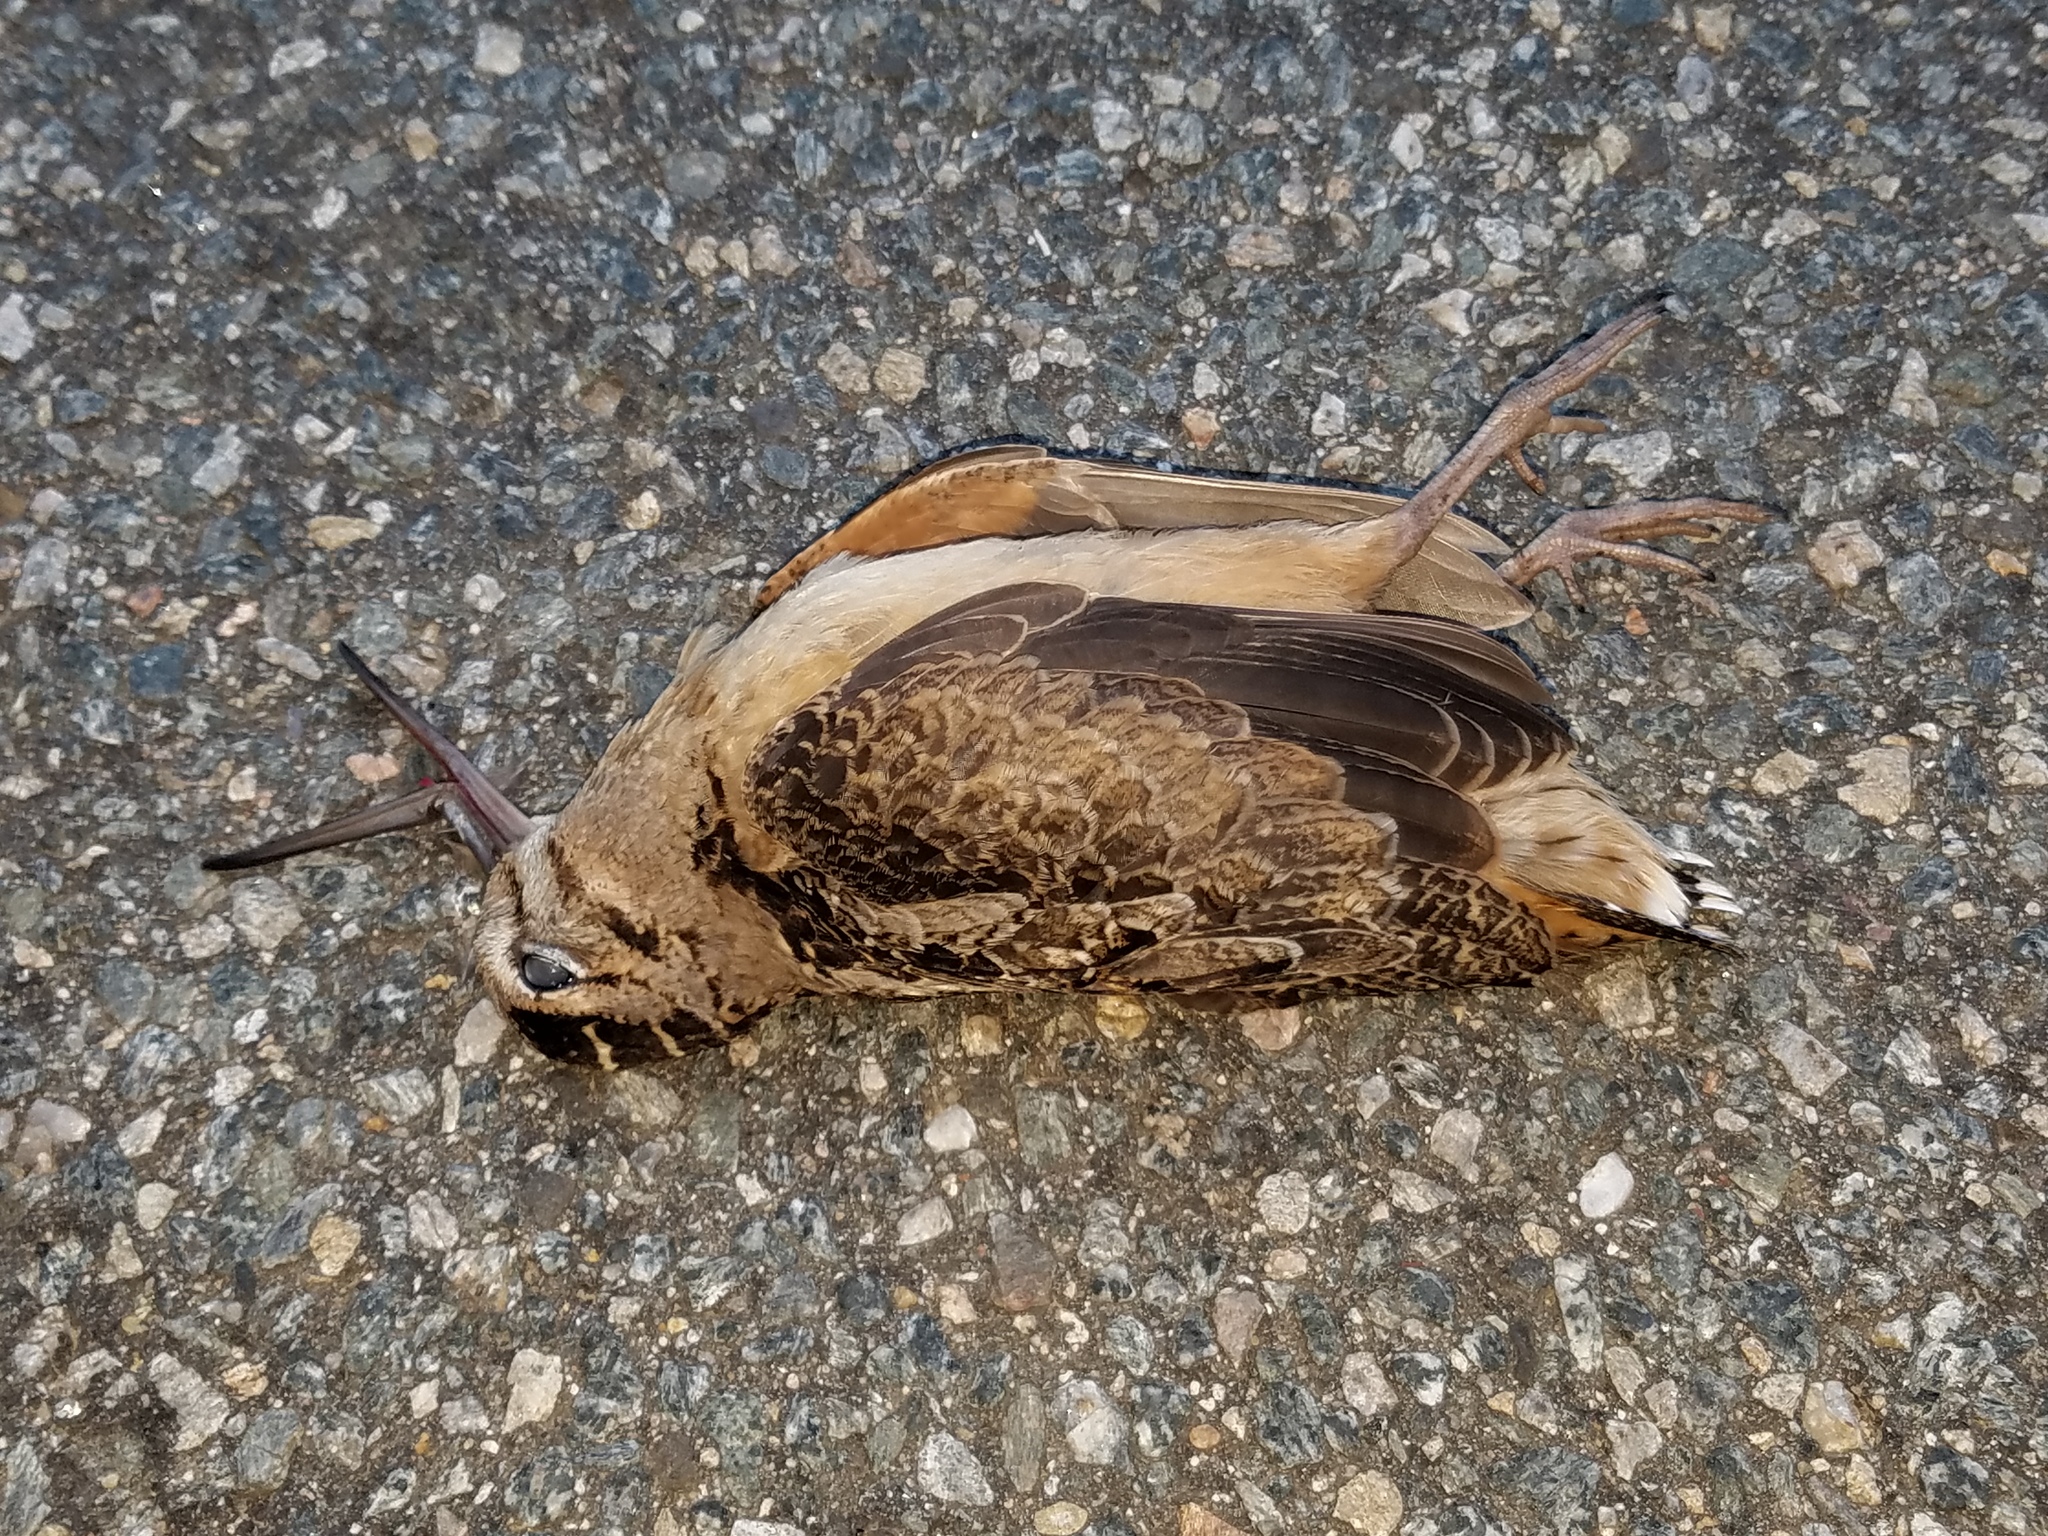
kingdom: Animalia
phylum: Chordata
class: Aves
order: Charadriiformes
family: Scolopacidae
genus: Scolopax
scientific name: Scolopax minor
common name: American woodcock
